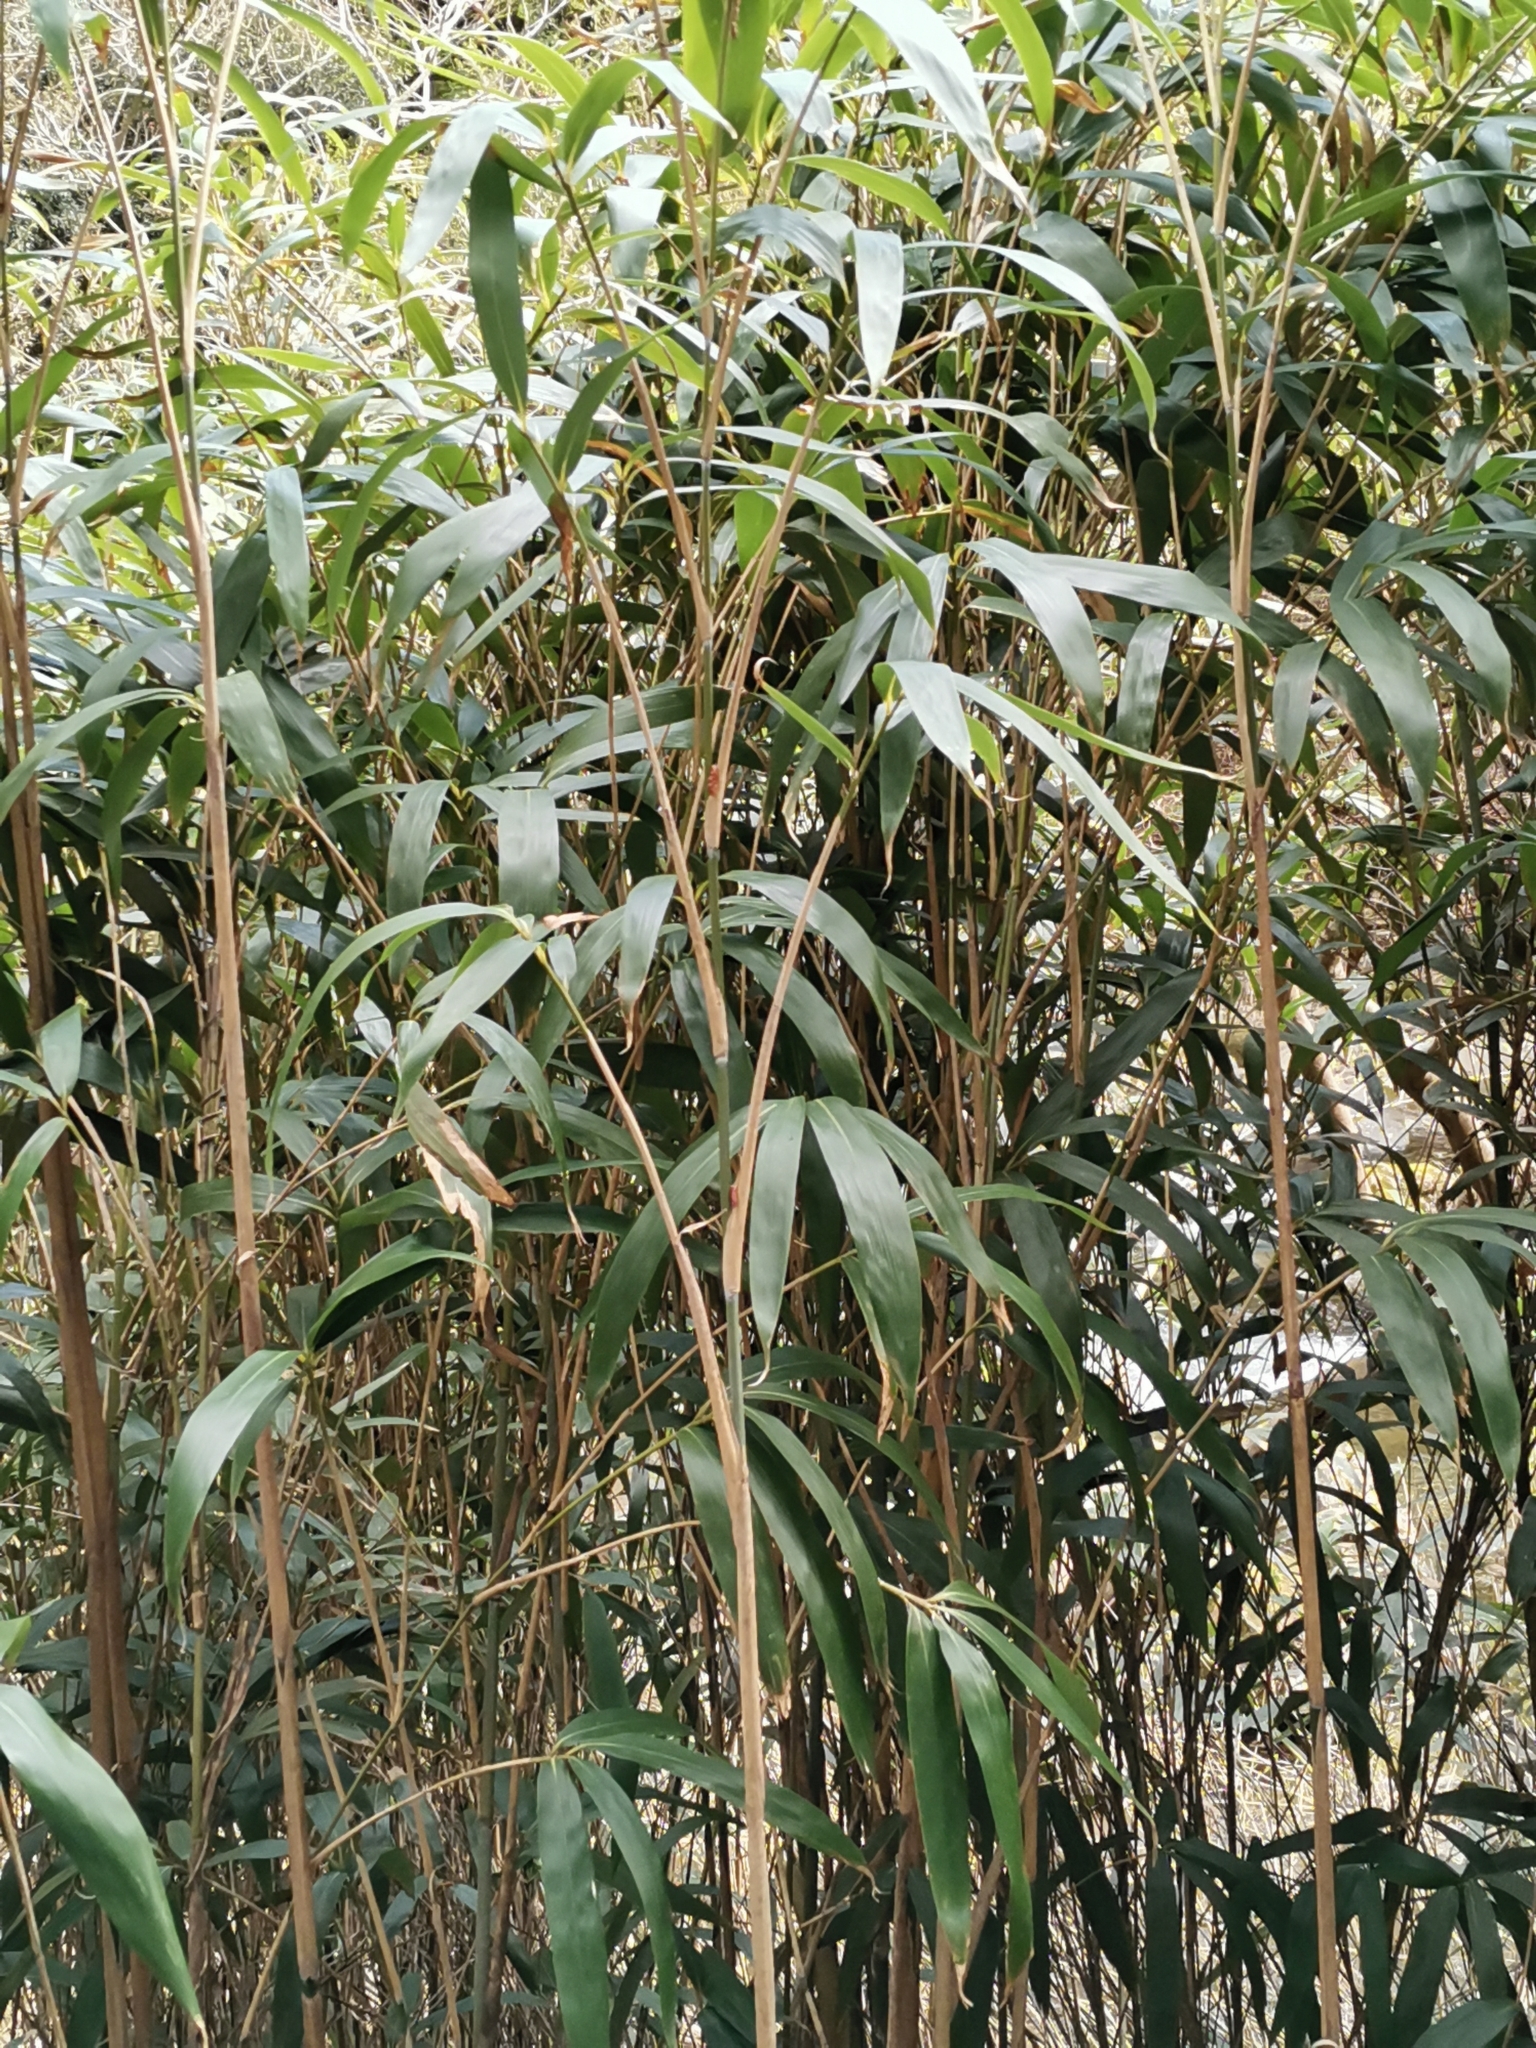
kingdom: Plantae
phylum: Tracheophyta
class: Liliopsida
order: Poales
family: Poaceae
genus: Pseudosasa
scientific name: Pseudosasa japonica
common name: Arrow bamboo
